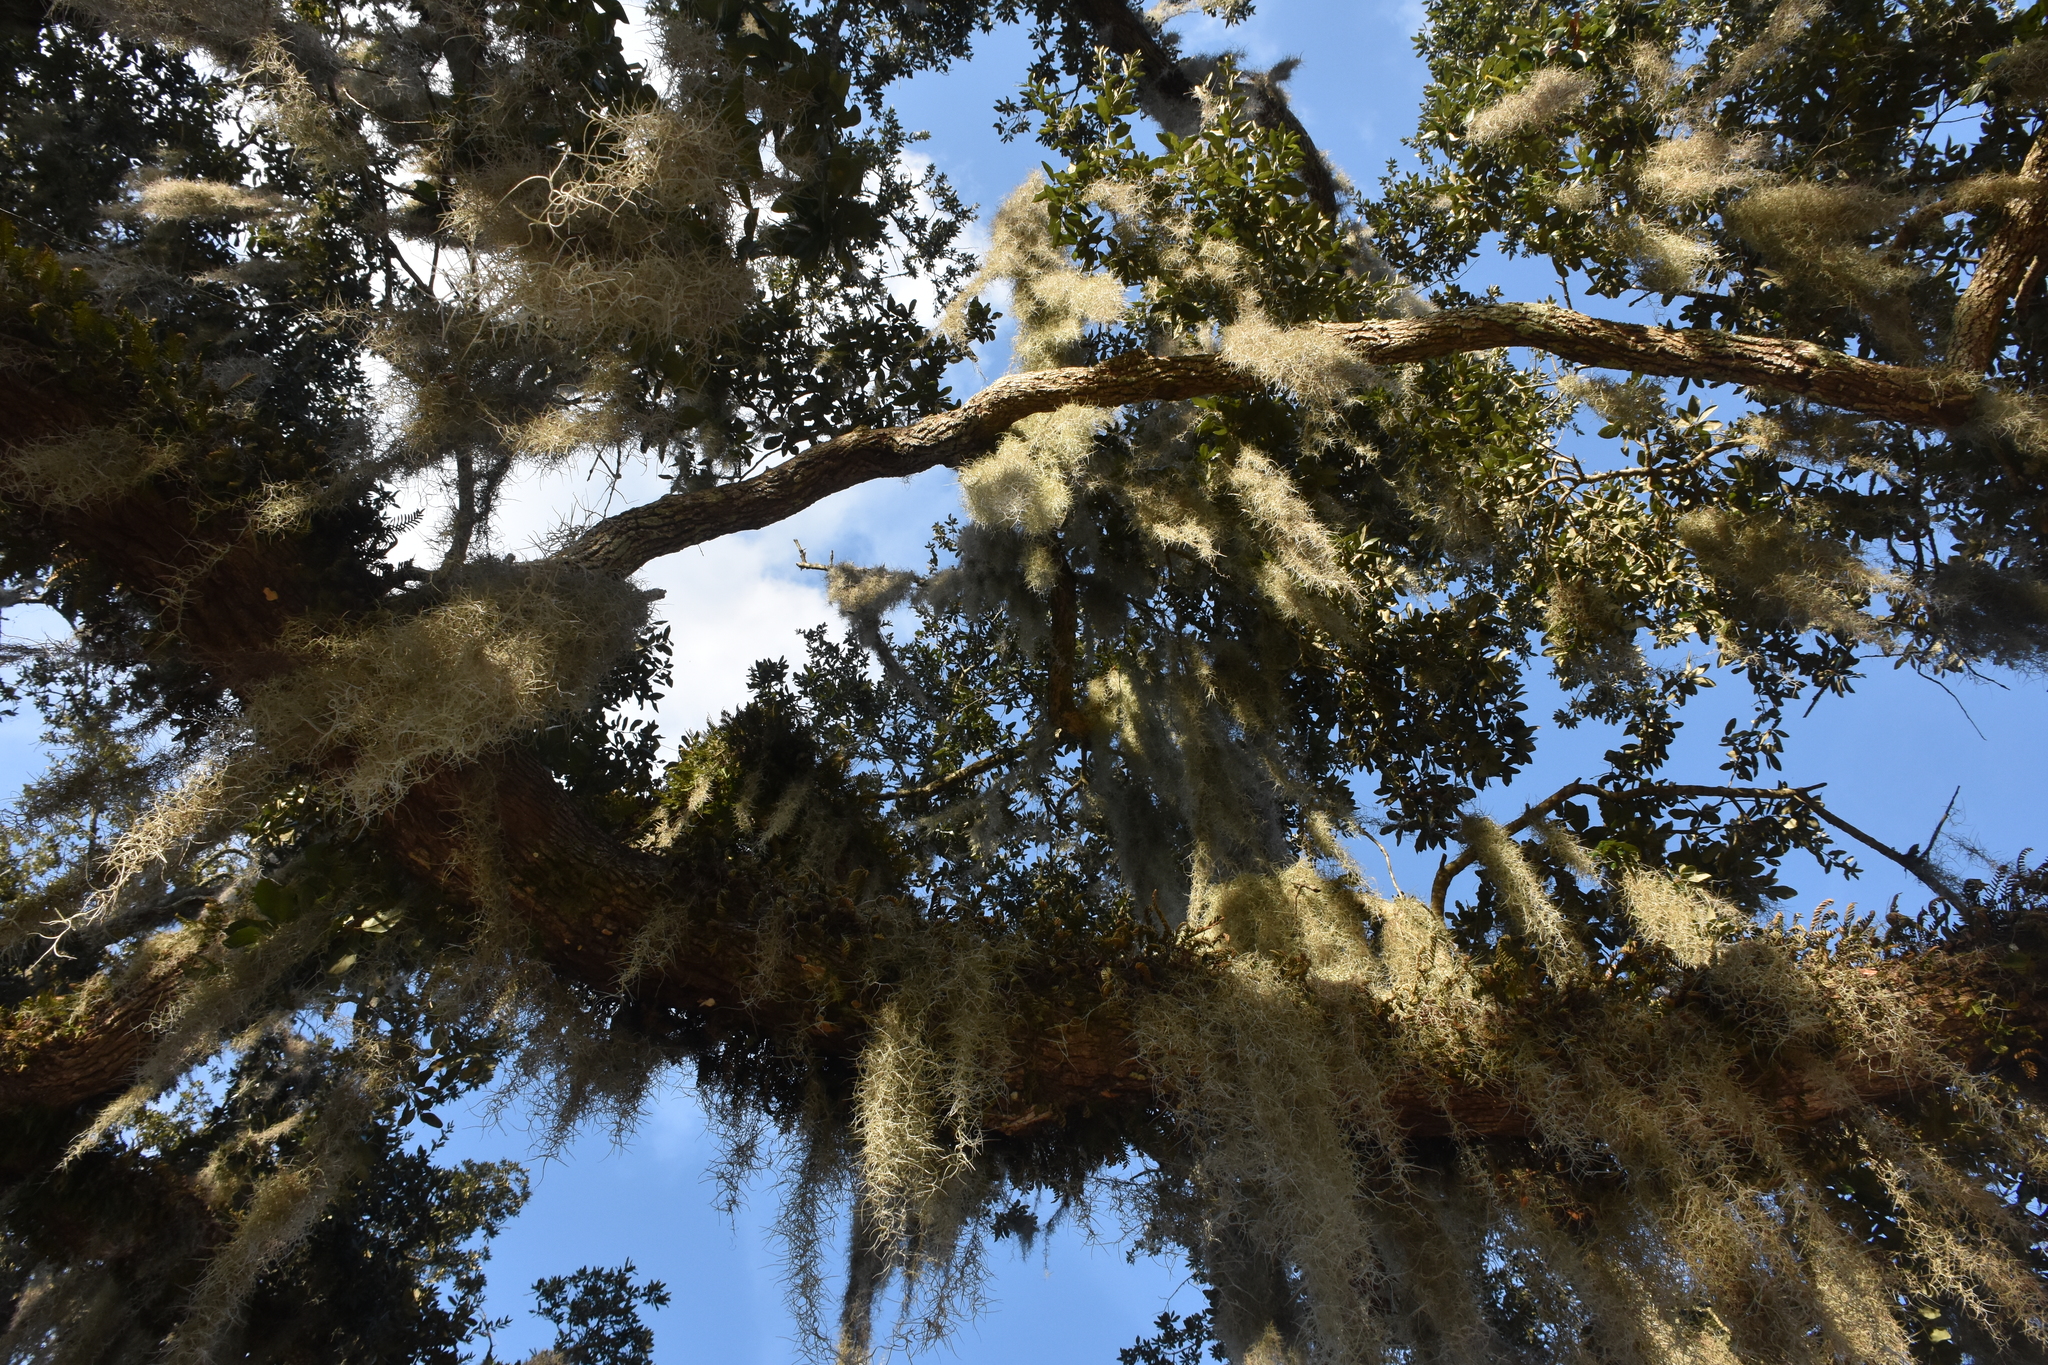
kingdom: Plantae
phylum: Tracheophyta
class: Liliopsida
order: Poales
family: Bromeliaceae
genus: Tillandsia
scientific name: Tillandsia usneoides
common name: Spanish moss
